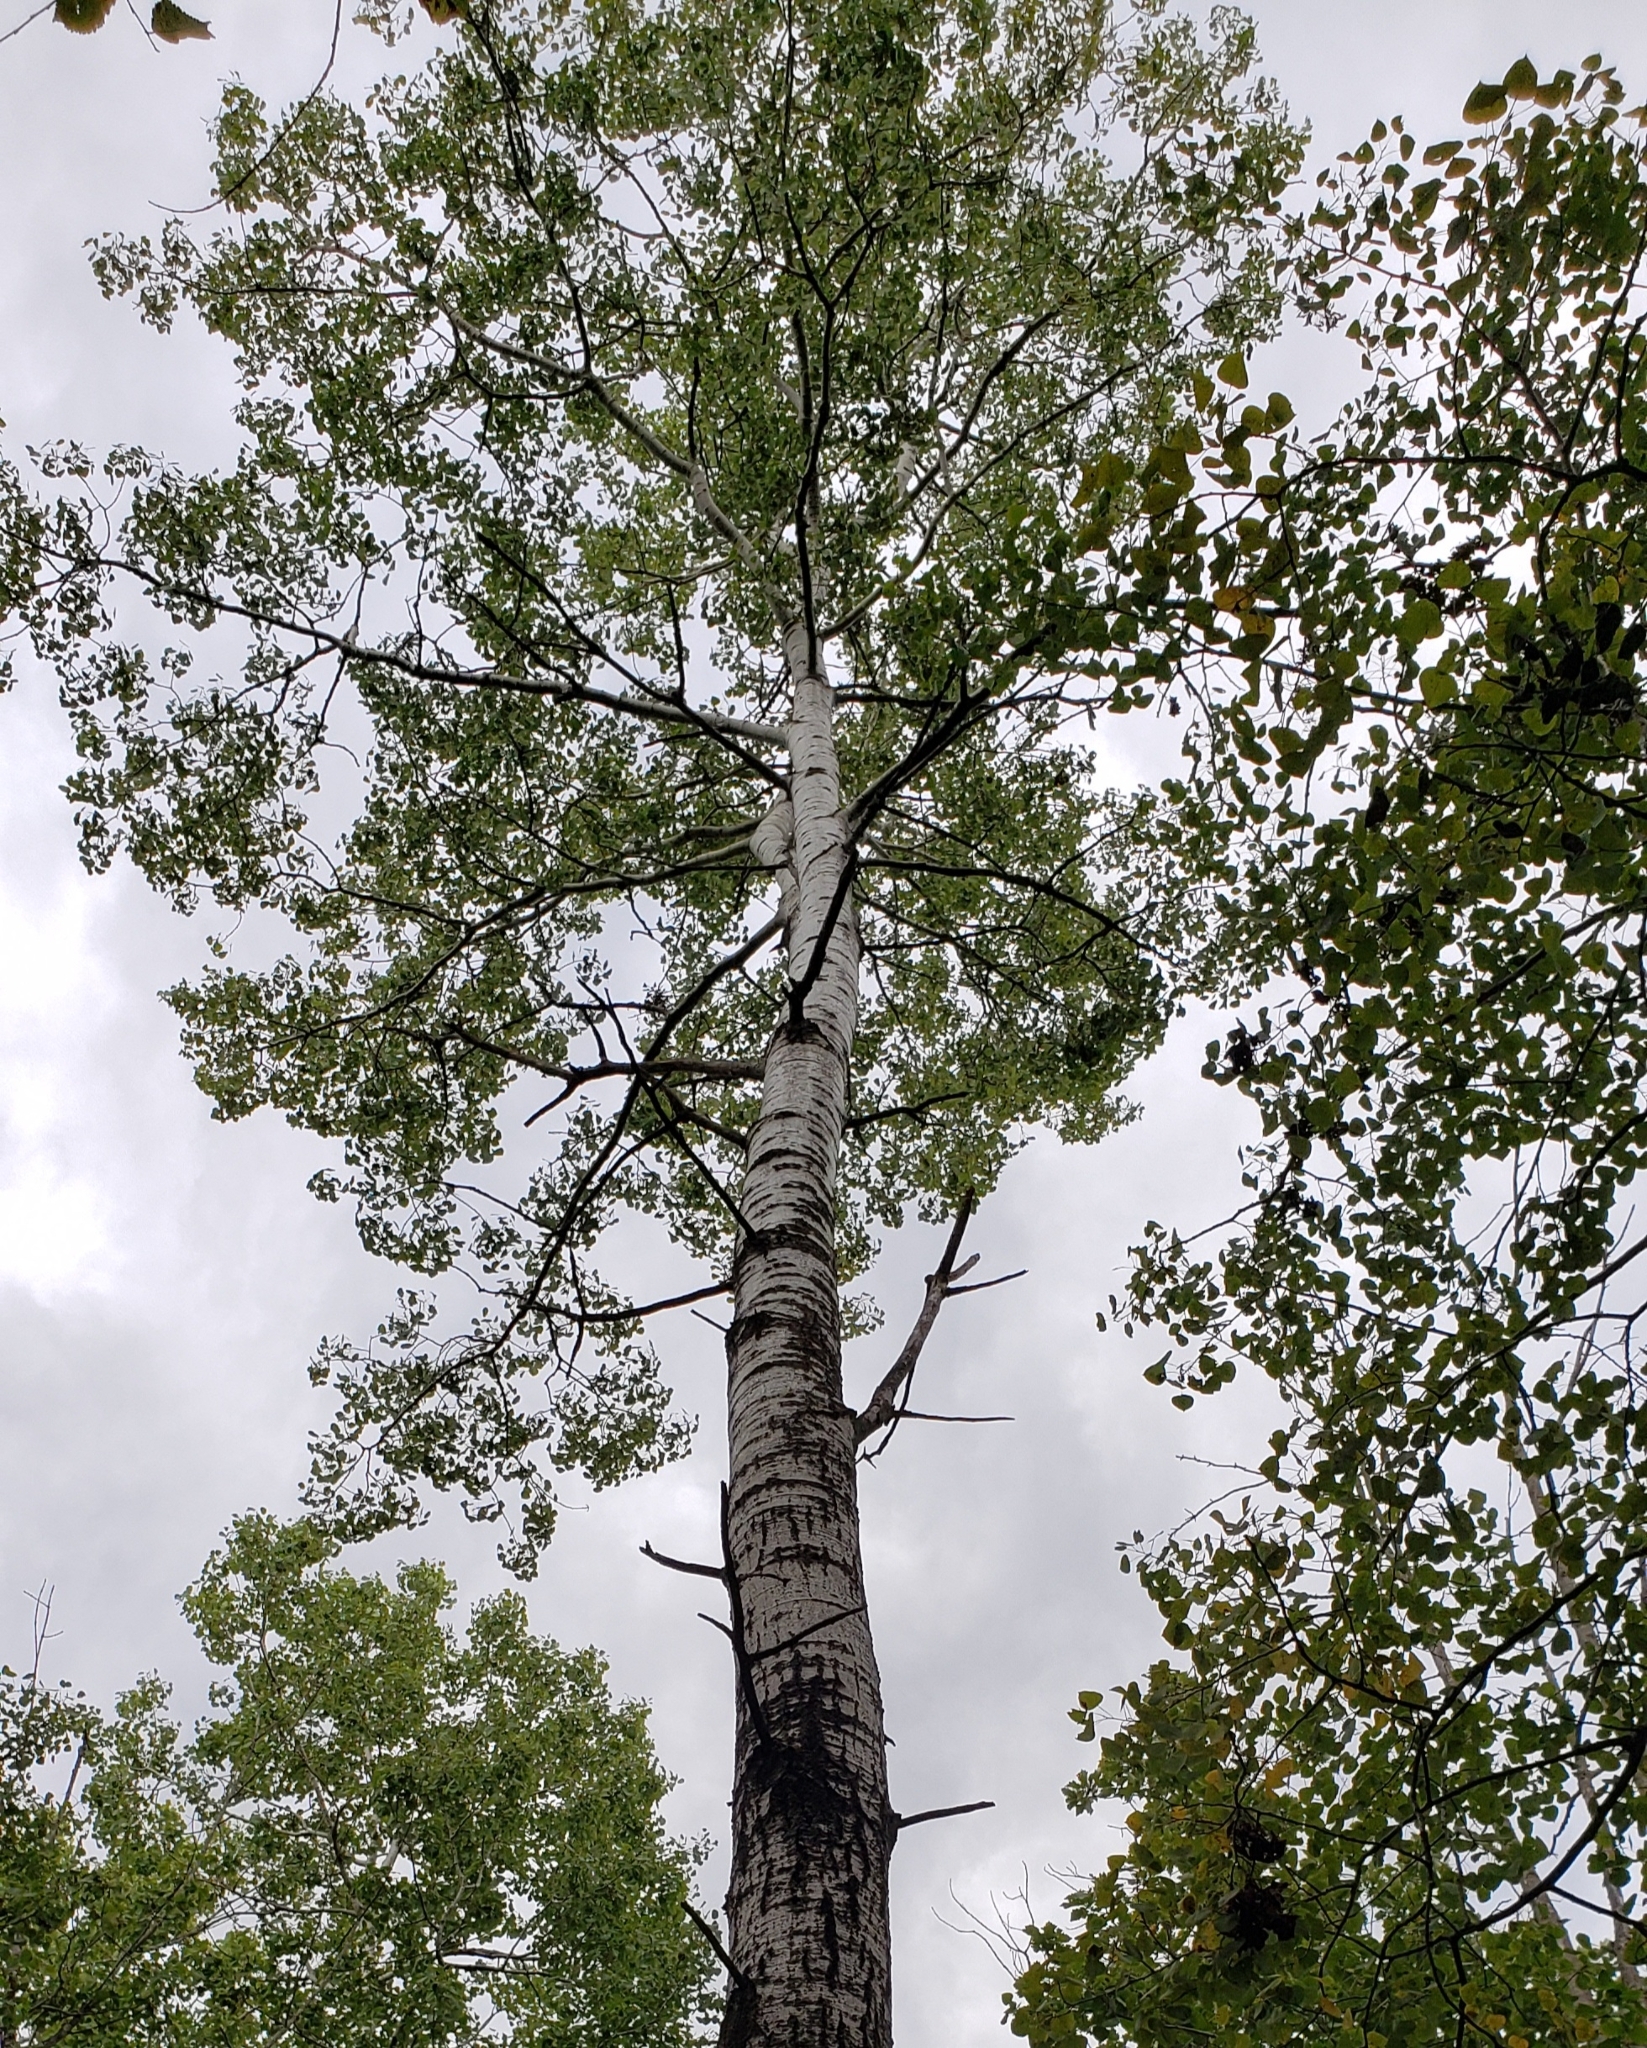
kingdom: Plantae
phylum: Tracheophyta
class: Magnoliopsida
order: Malpighiales
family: Salicaceae
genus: Populus
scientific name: Populus tremuloides
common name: Quaking aspen
